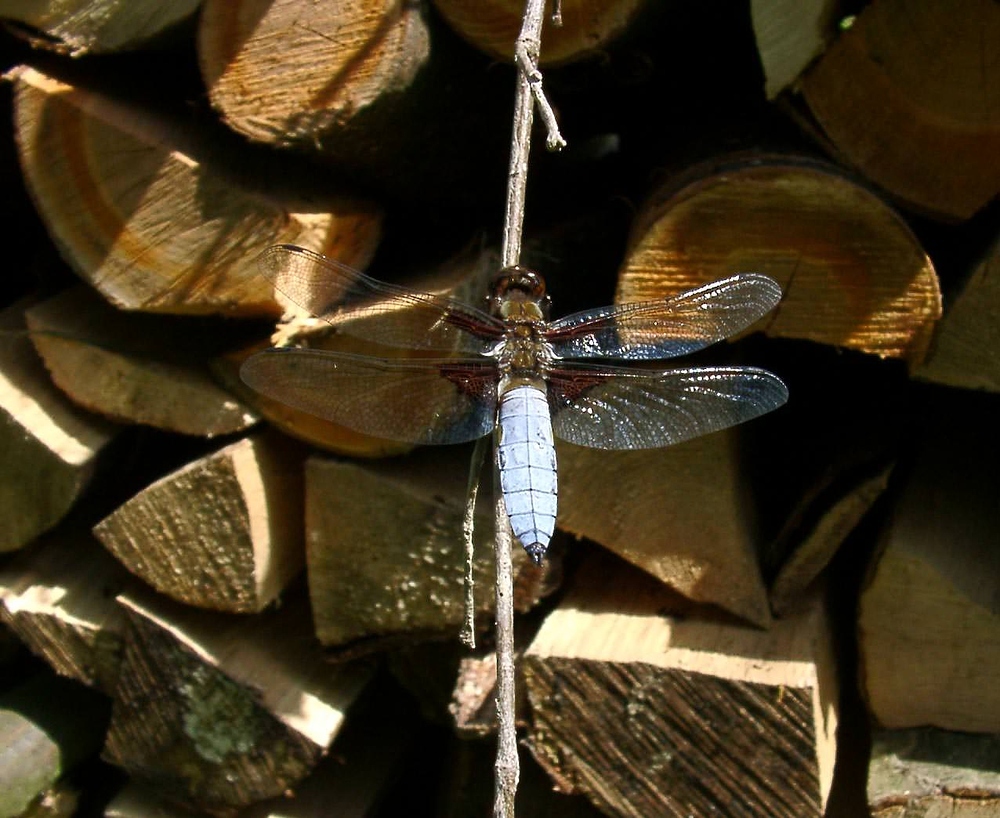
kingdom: Animalia
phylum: Arthropoda
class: Insecta
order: Odonata
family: Libellulidae
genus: Libellula
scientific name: Libellula depressa
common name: Broad-bodied chaser
